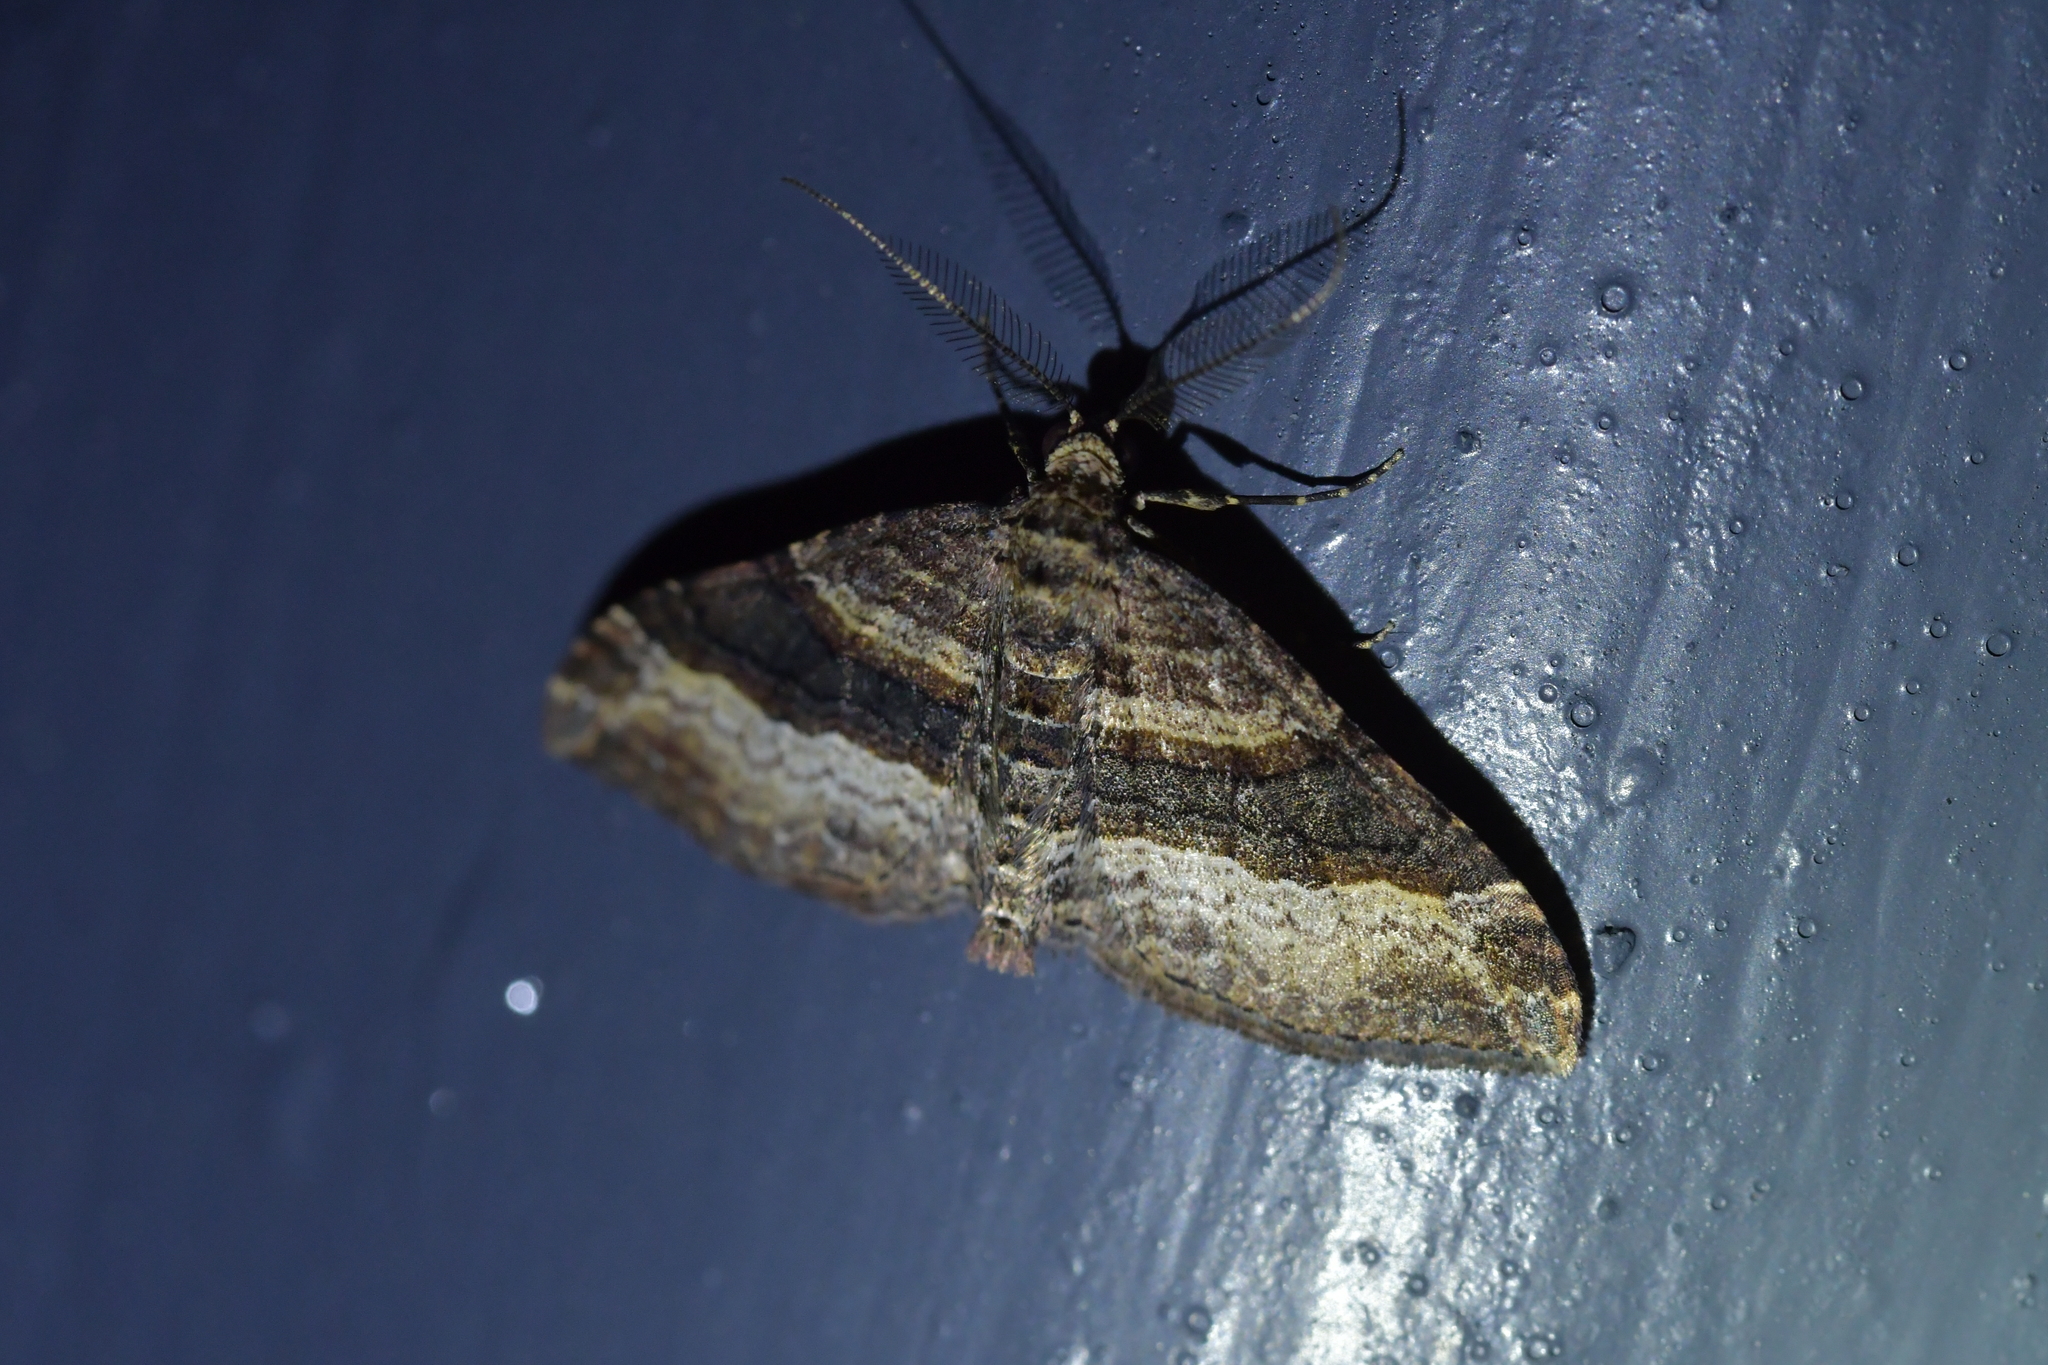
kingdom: Animalia
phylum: Arthropoda
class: Insecta
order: Lepidoptera
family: Geometridae
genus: Epyaxa
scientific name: Epyaxa lucidata
